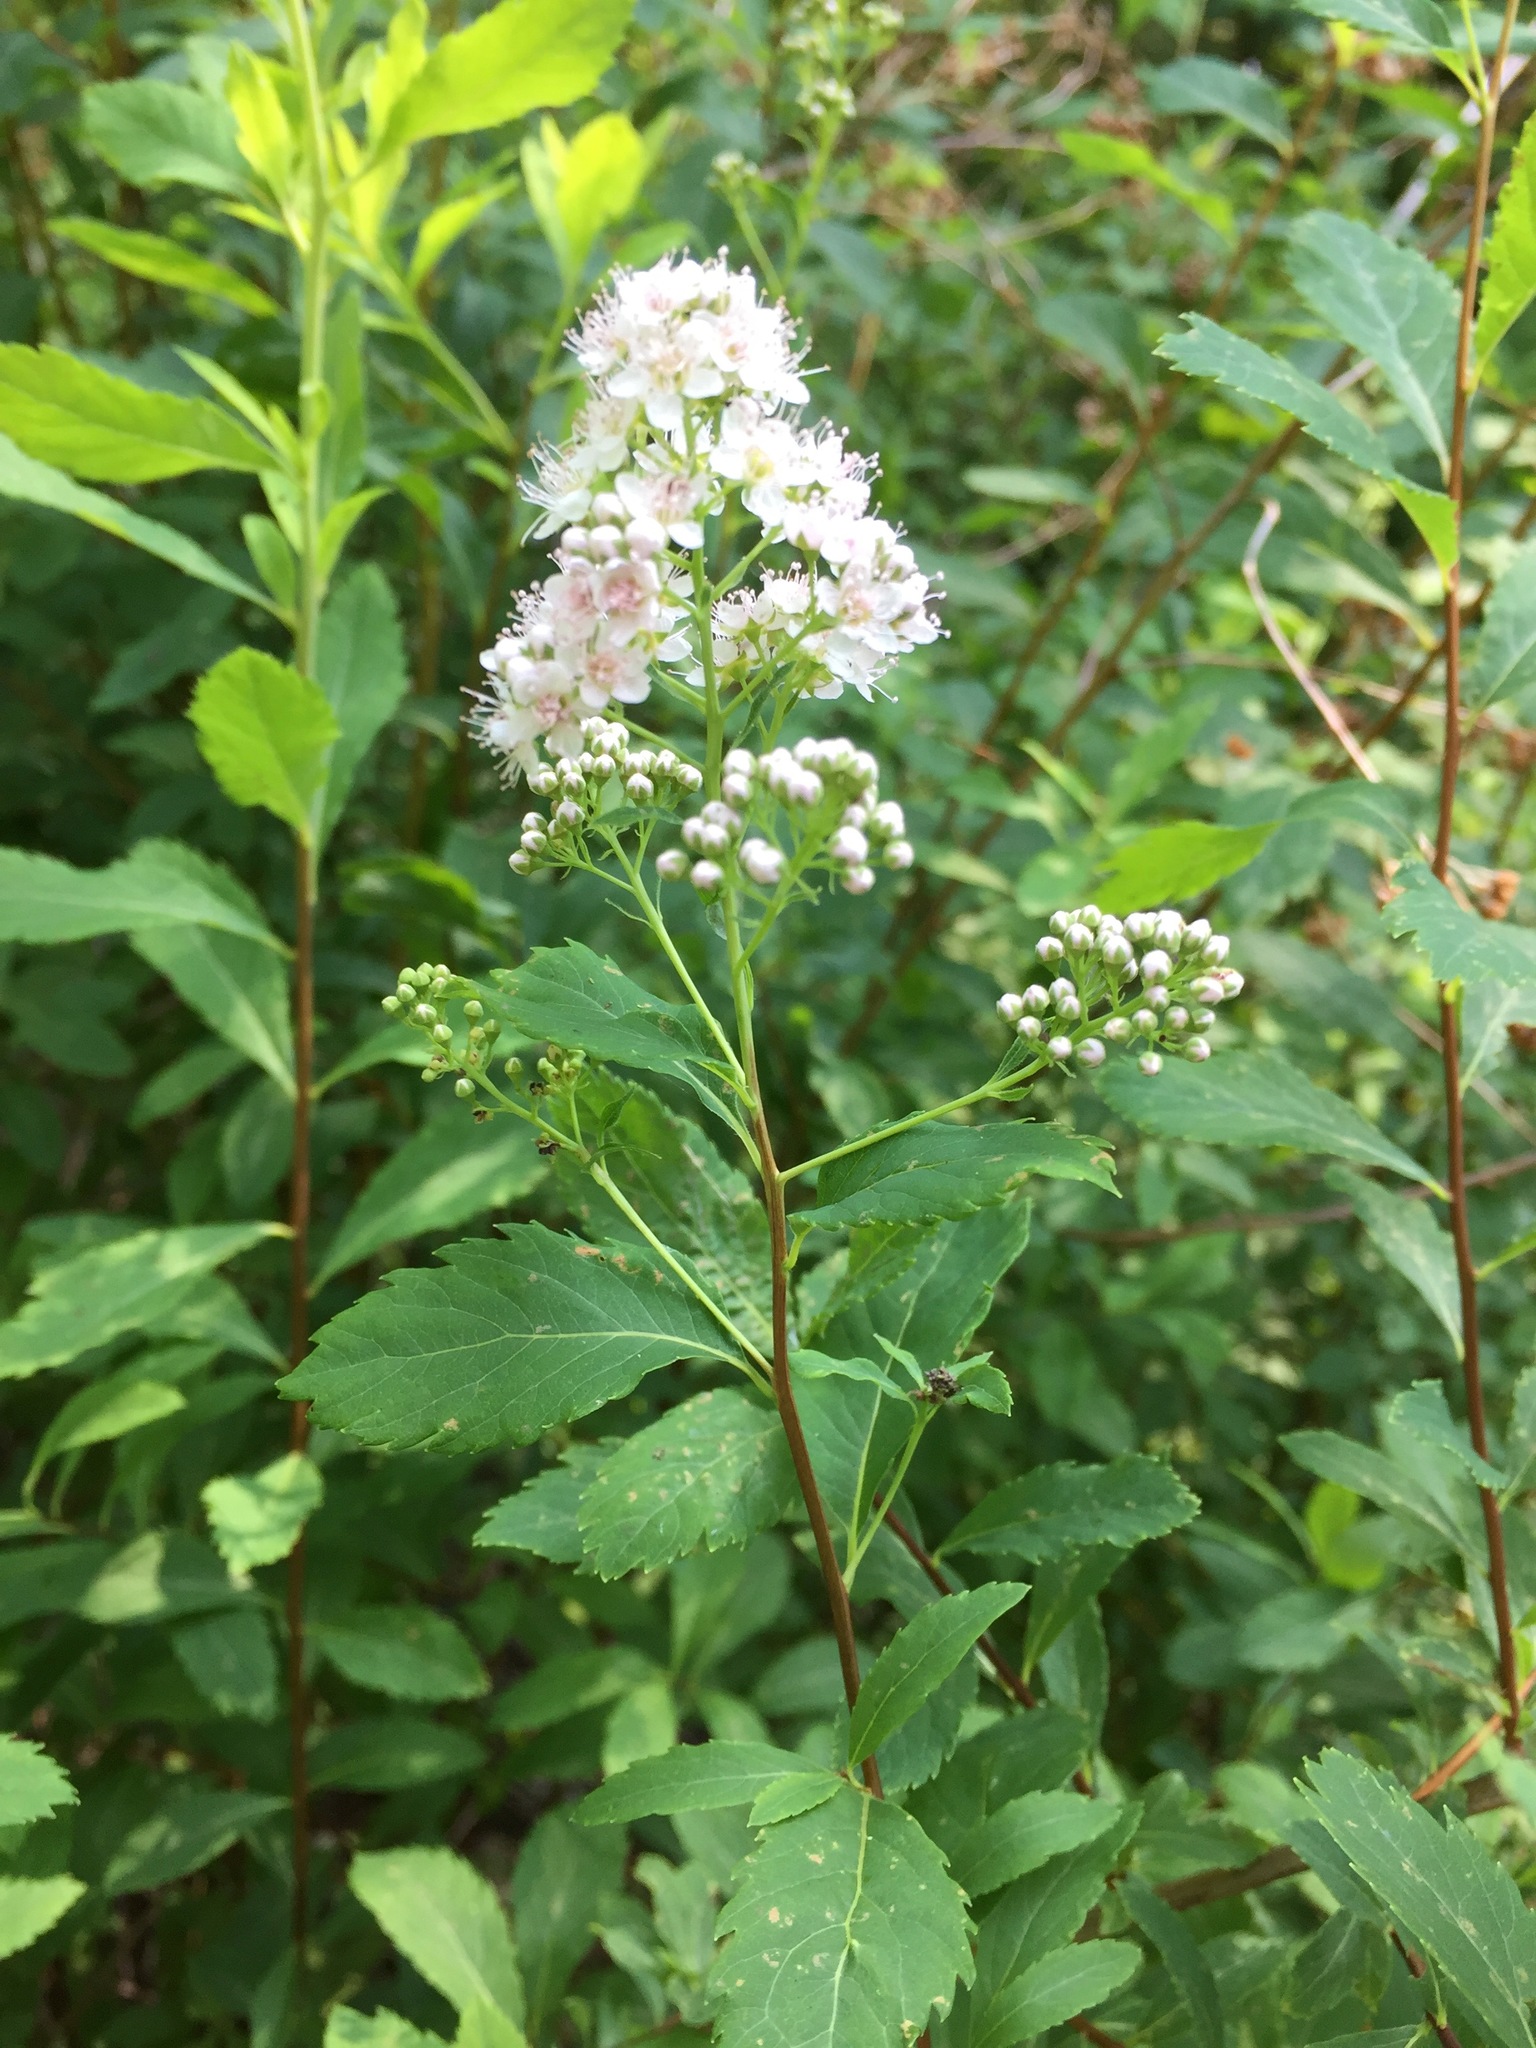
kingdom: Plantae
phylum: Tracheophyta
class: Magnoliopsida
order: Rosales
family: Rosaceae
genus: Spiraea
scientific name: Spiraea alba
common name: Pale bridewort
